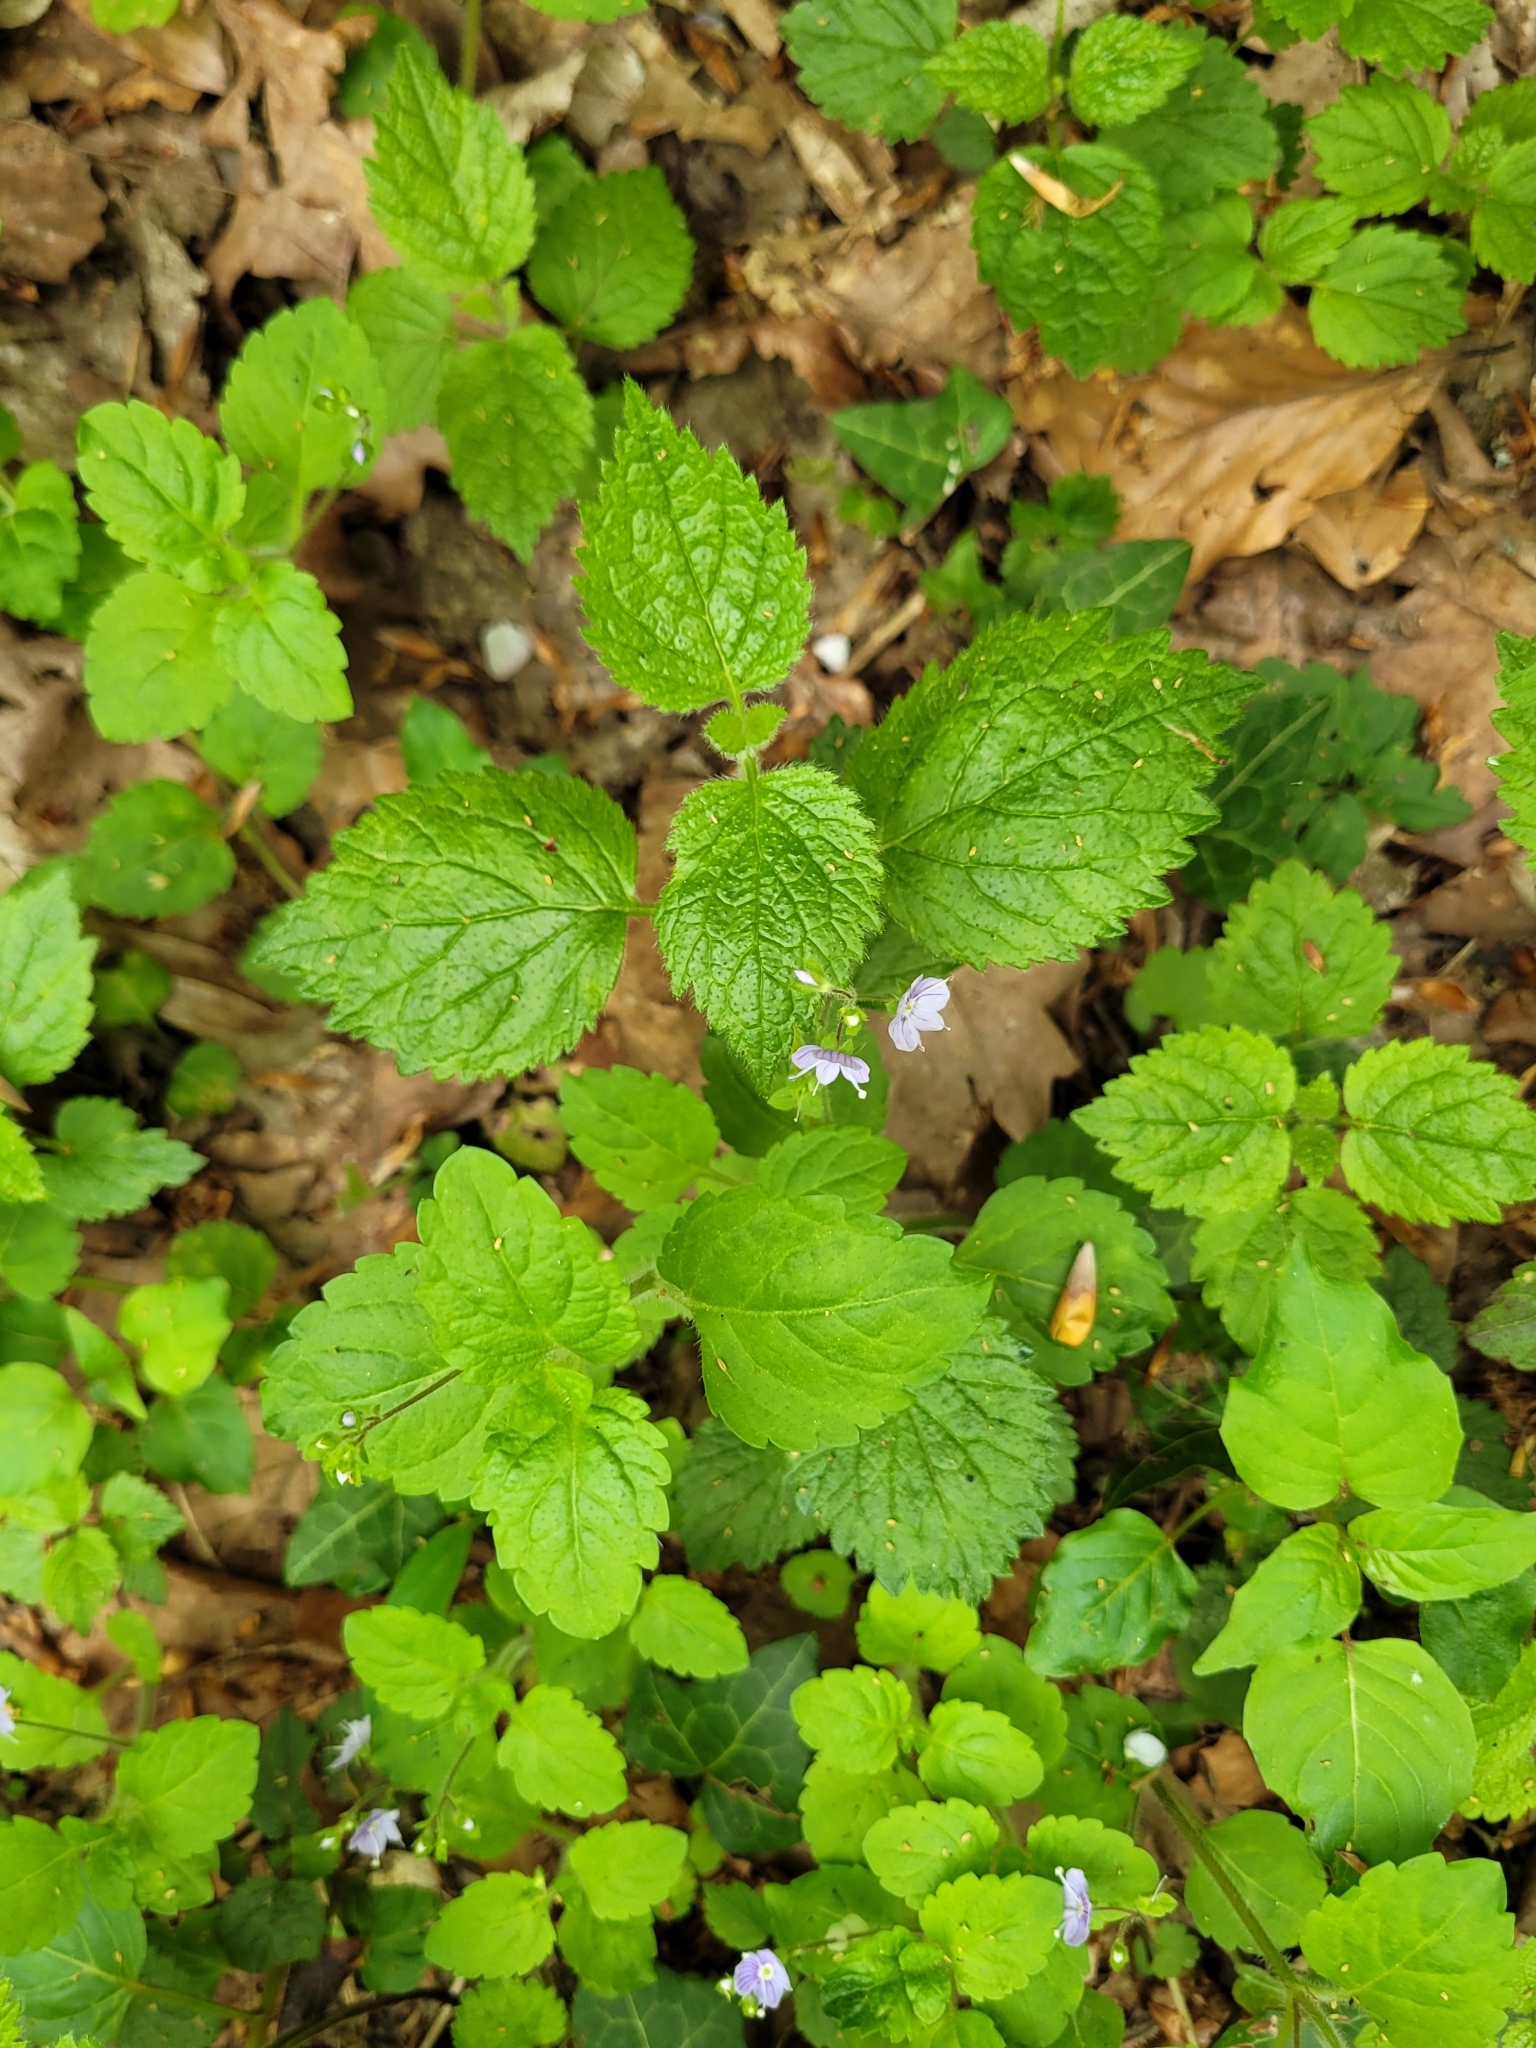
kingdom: Plantae
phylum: Tracheophyta
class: Magnoliopsida
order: Lamiales
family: Plantaginaceae
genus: Veronica
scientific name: Veronica montana
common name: Wood speedwell
